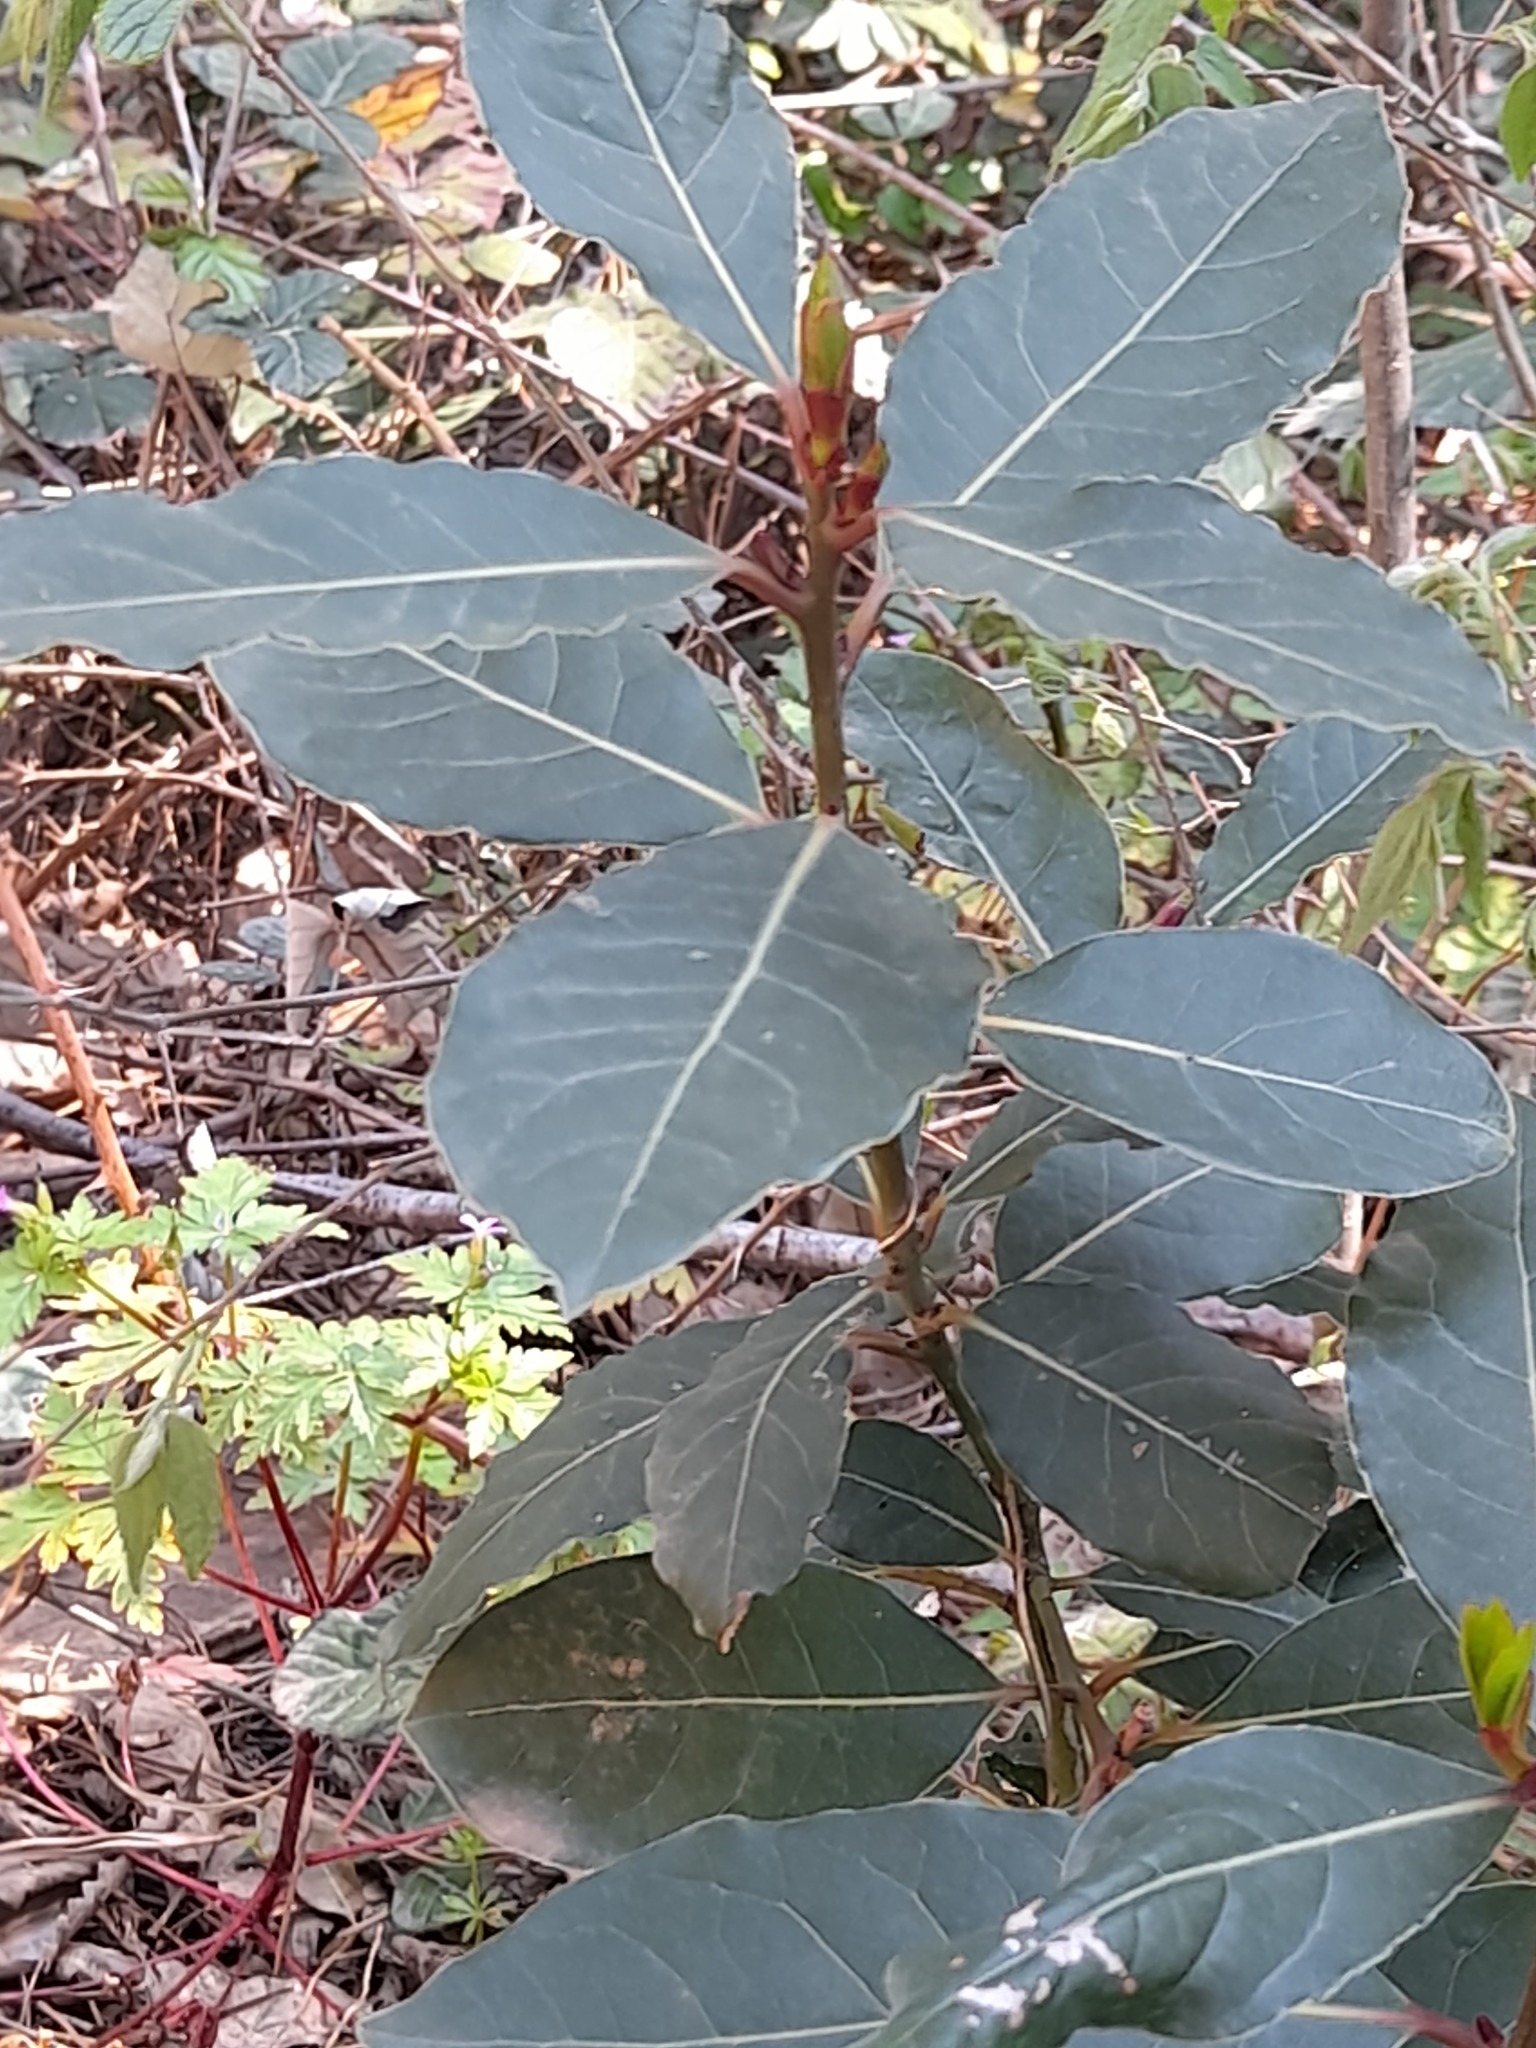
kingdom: Plantae
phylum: Tracheophyta
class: Magnoliopsida
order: Laurales
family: Lauraceae
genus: Laurus
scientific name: Laurus nobilis
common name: Bay
